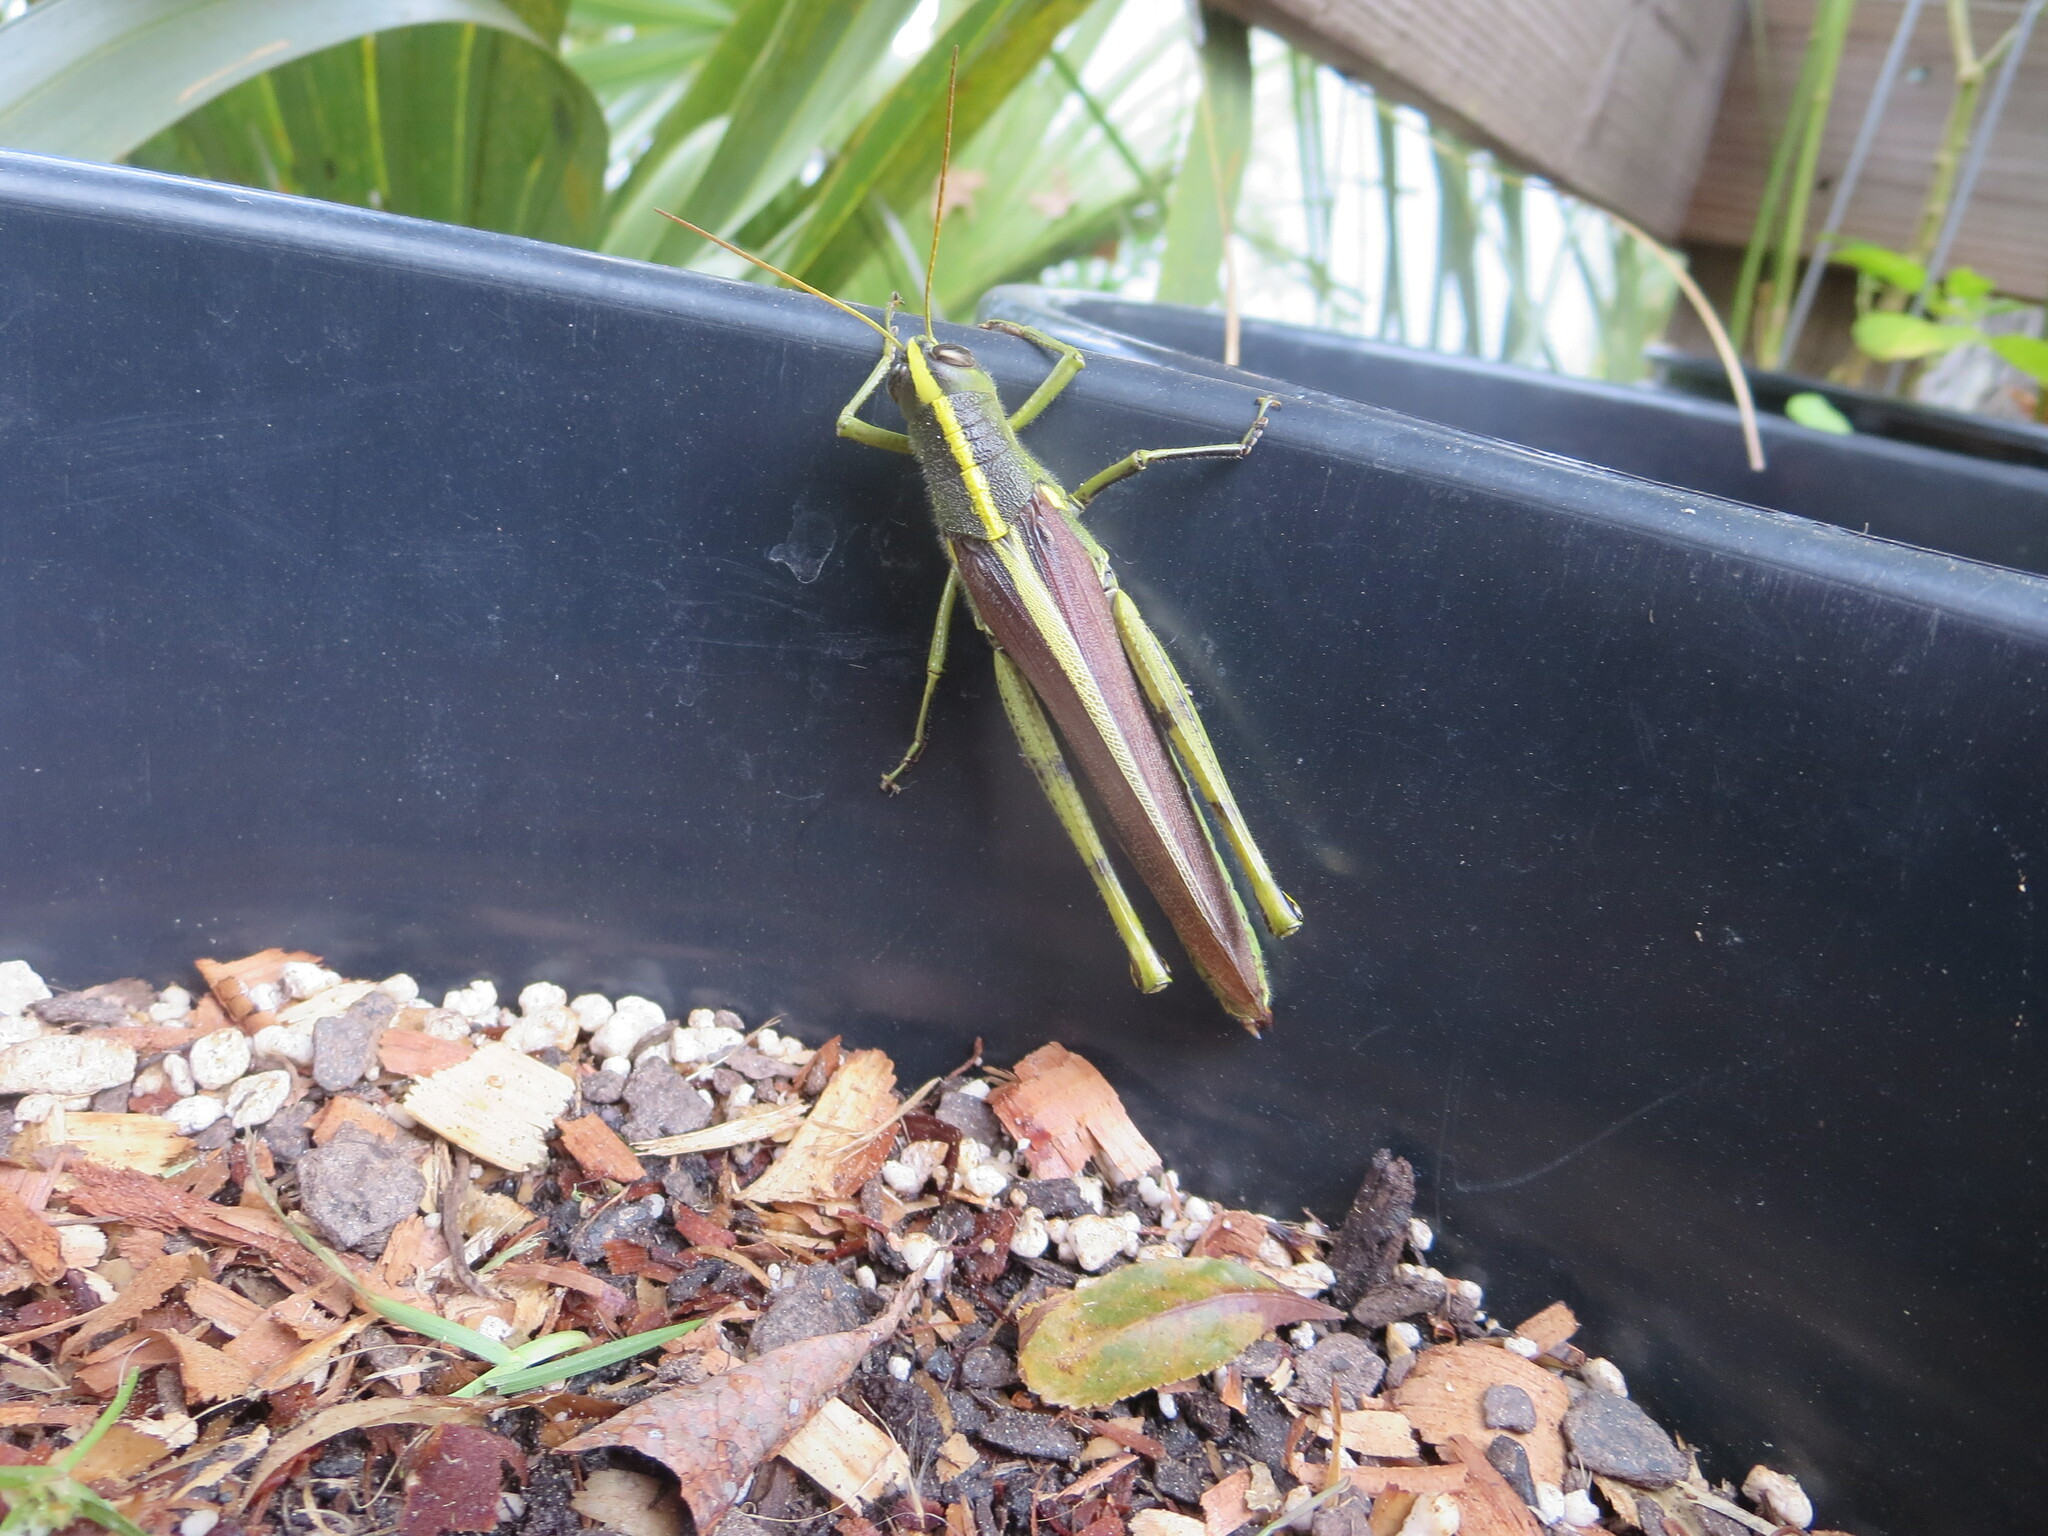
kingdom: Animalia
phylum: Arthropoda
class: Insecta
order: Orthoptera
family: Acrididae
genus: Schistocerca
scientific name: Schistocerca obscura
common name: Obscure bird grasshopper
